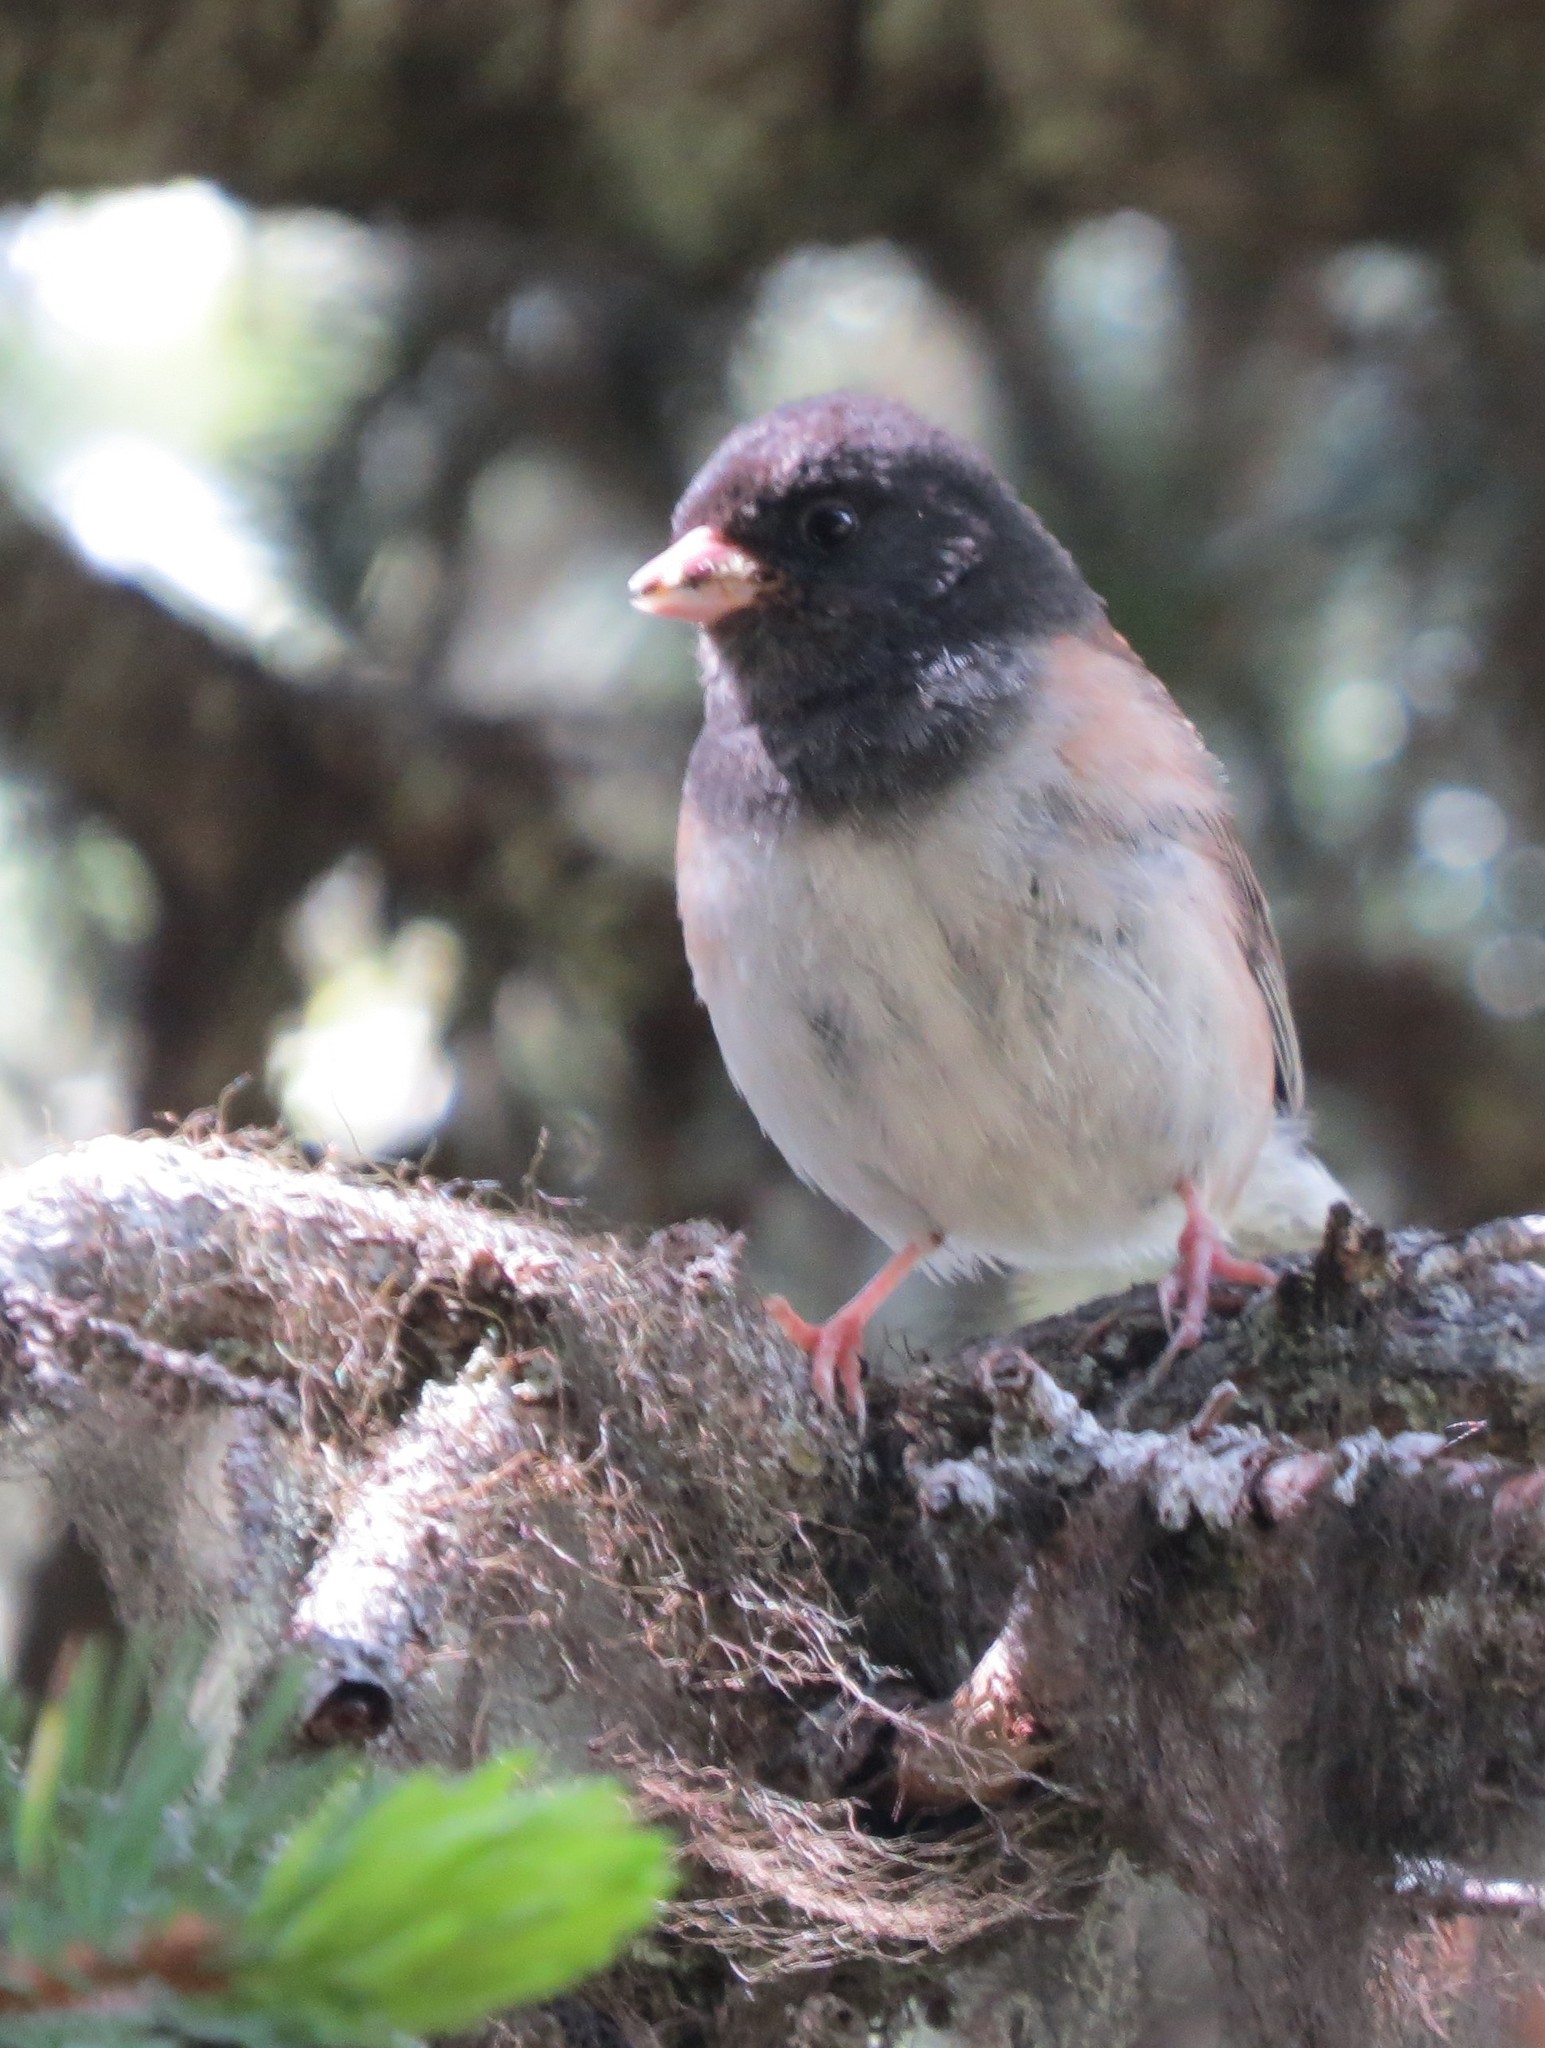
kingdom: Animalia
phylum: Chordata
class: Aves
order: Passeriformes
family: Passerellidae
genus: Junco
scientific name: Junco hyemalis
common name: Dark-eyed junco
